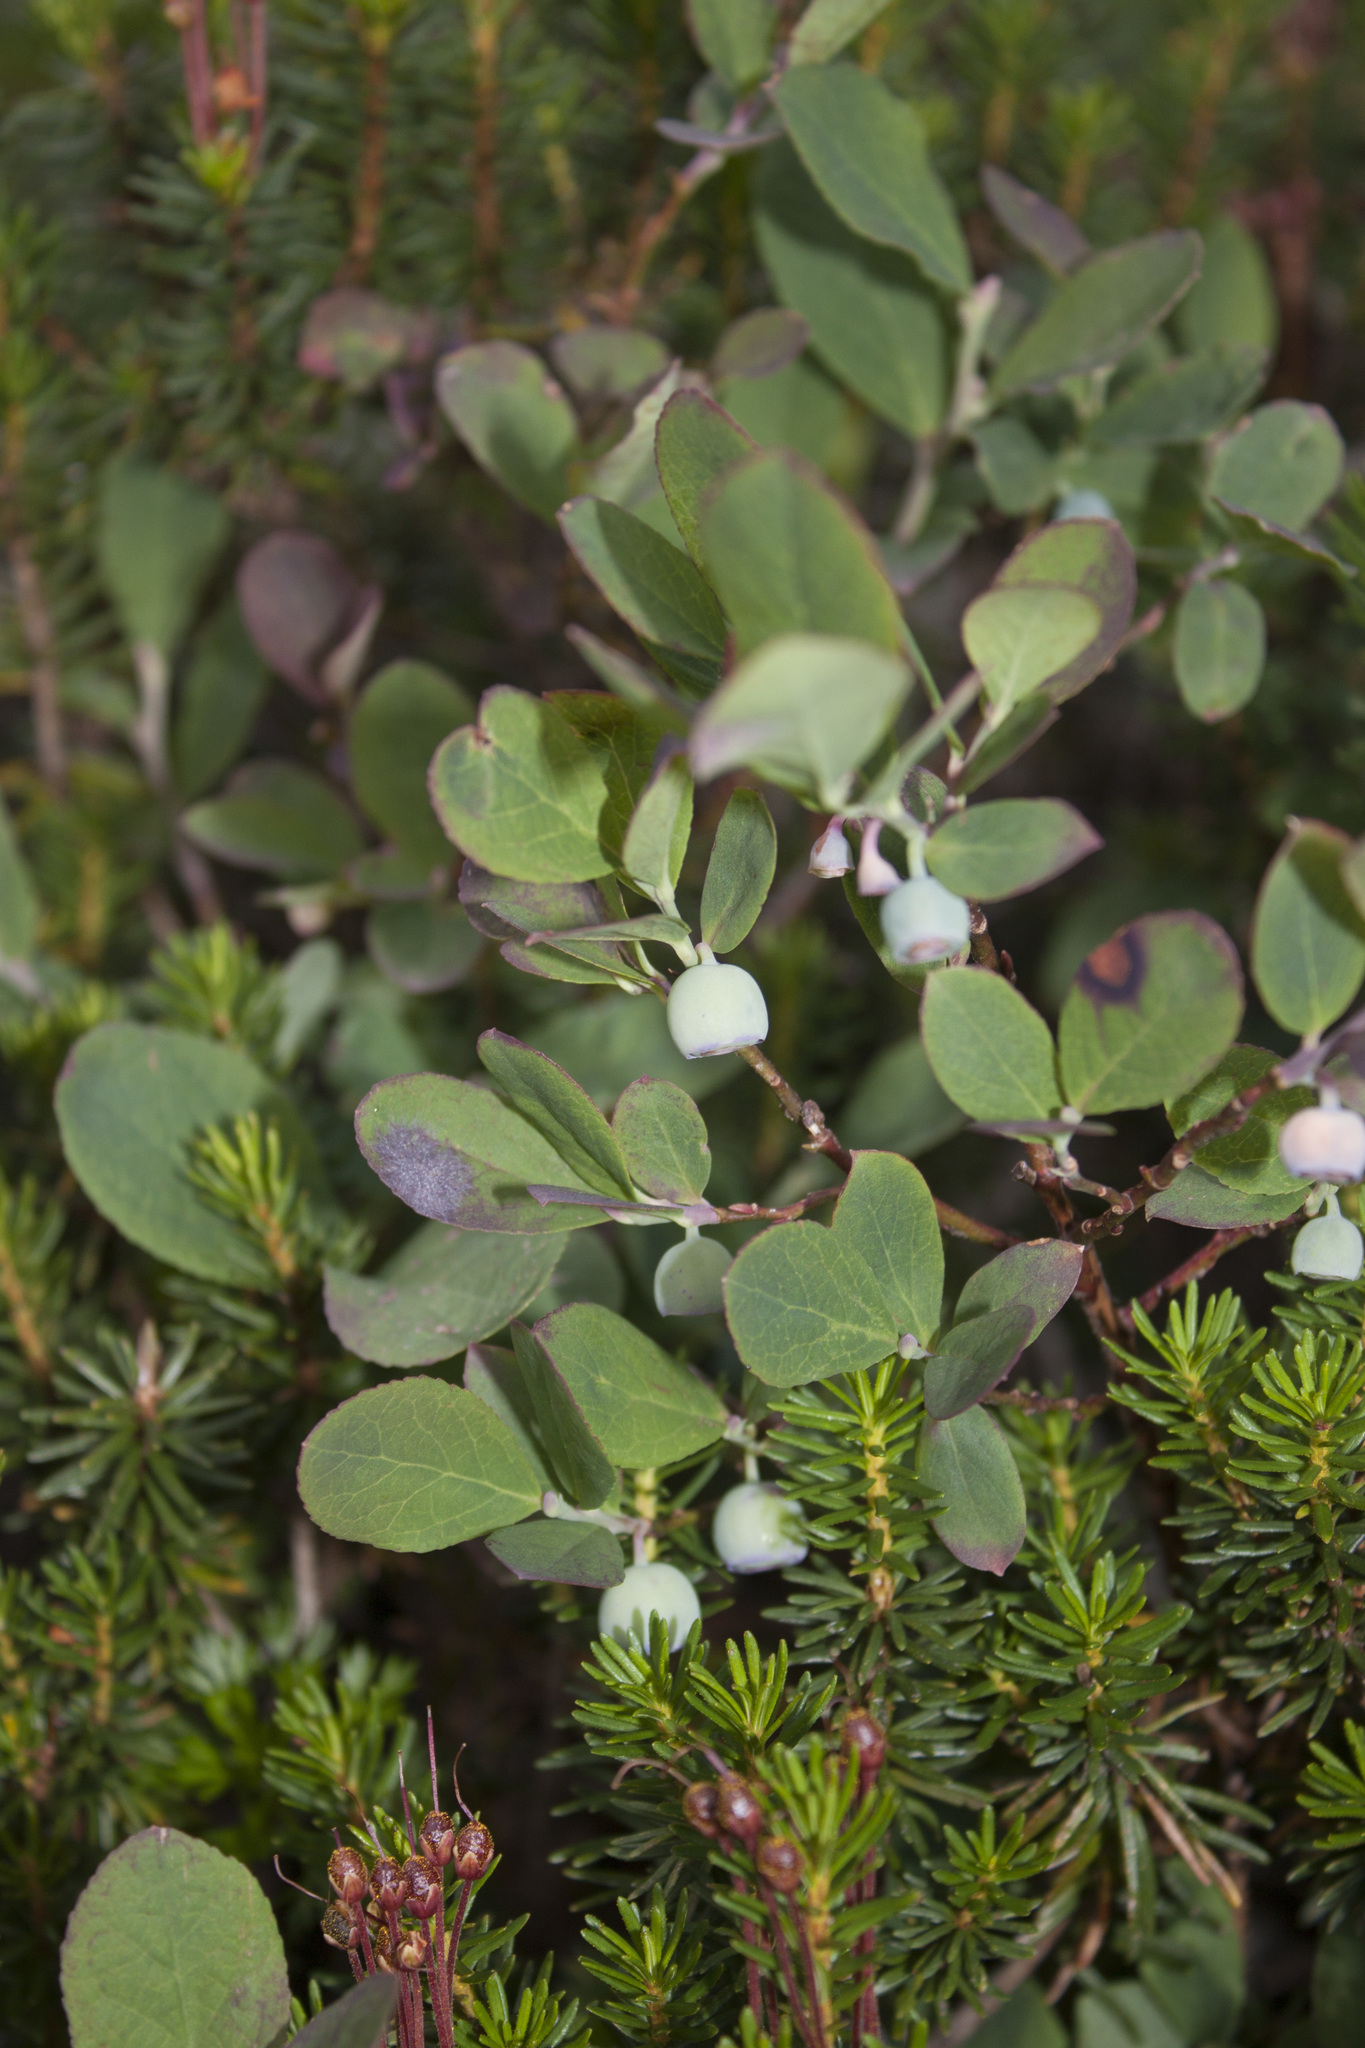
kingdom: Plantae
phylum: Tracheophyta
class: Magnoliopsida
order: Ericales
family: Ericaceae
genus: Vaccinium
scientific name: Vaccinium deliciosum
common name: Cascade bilberry
